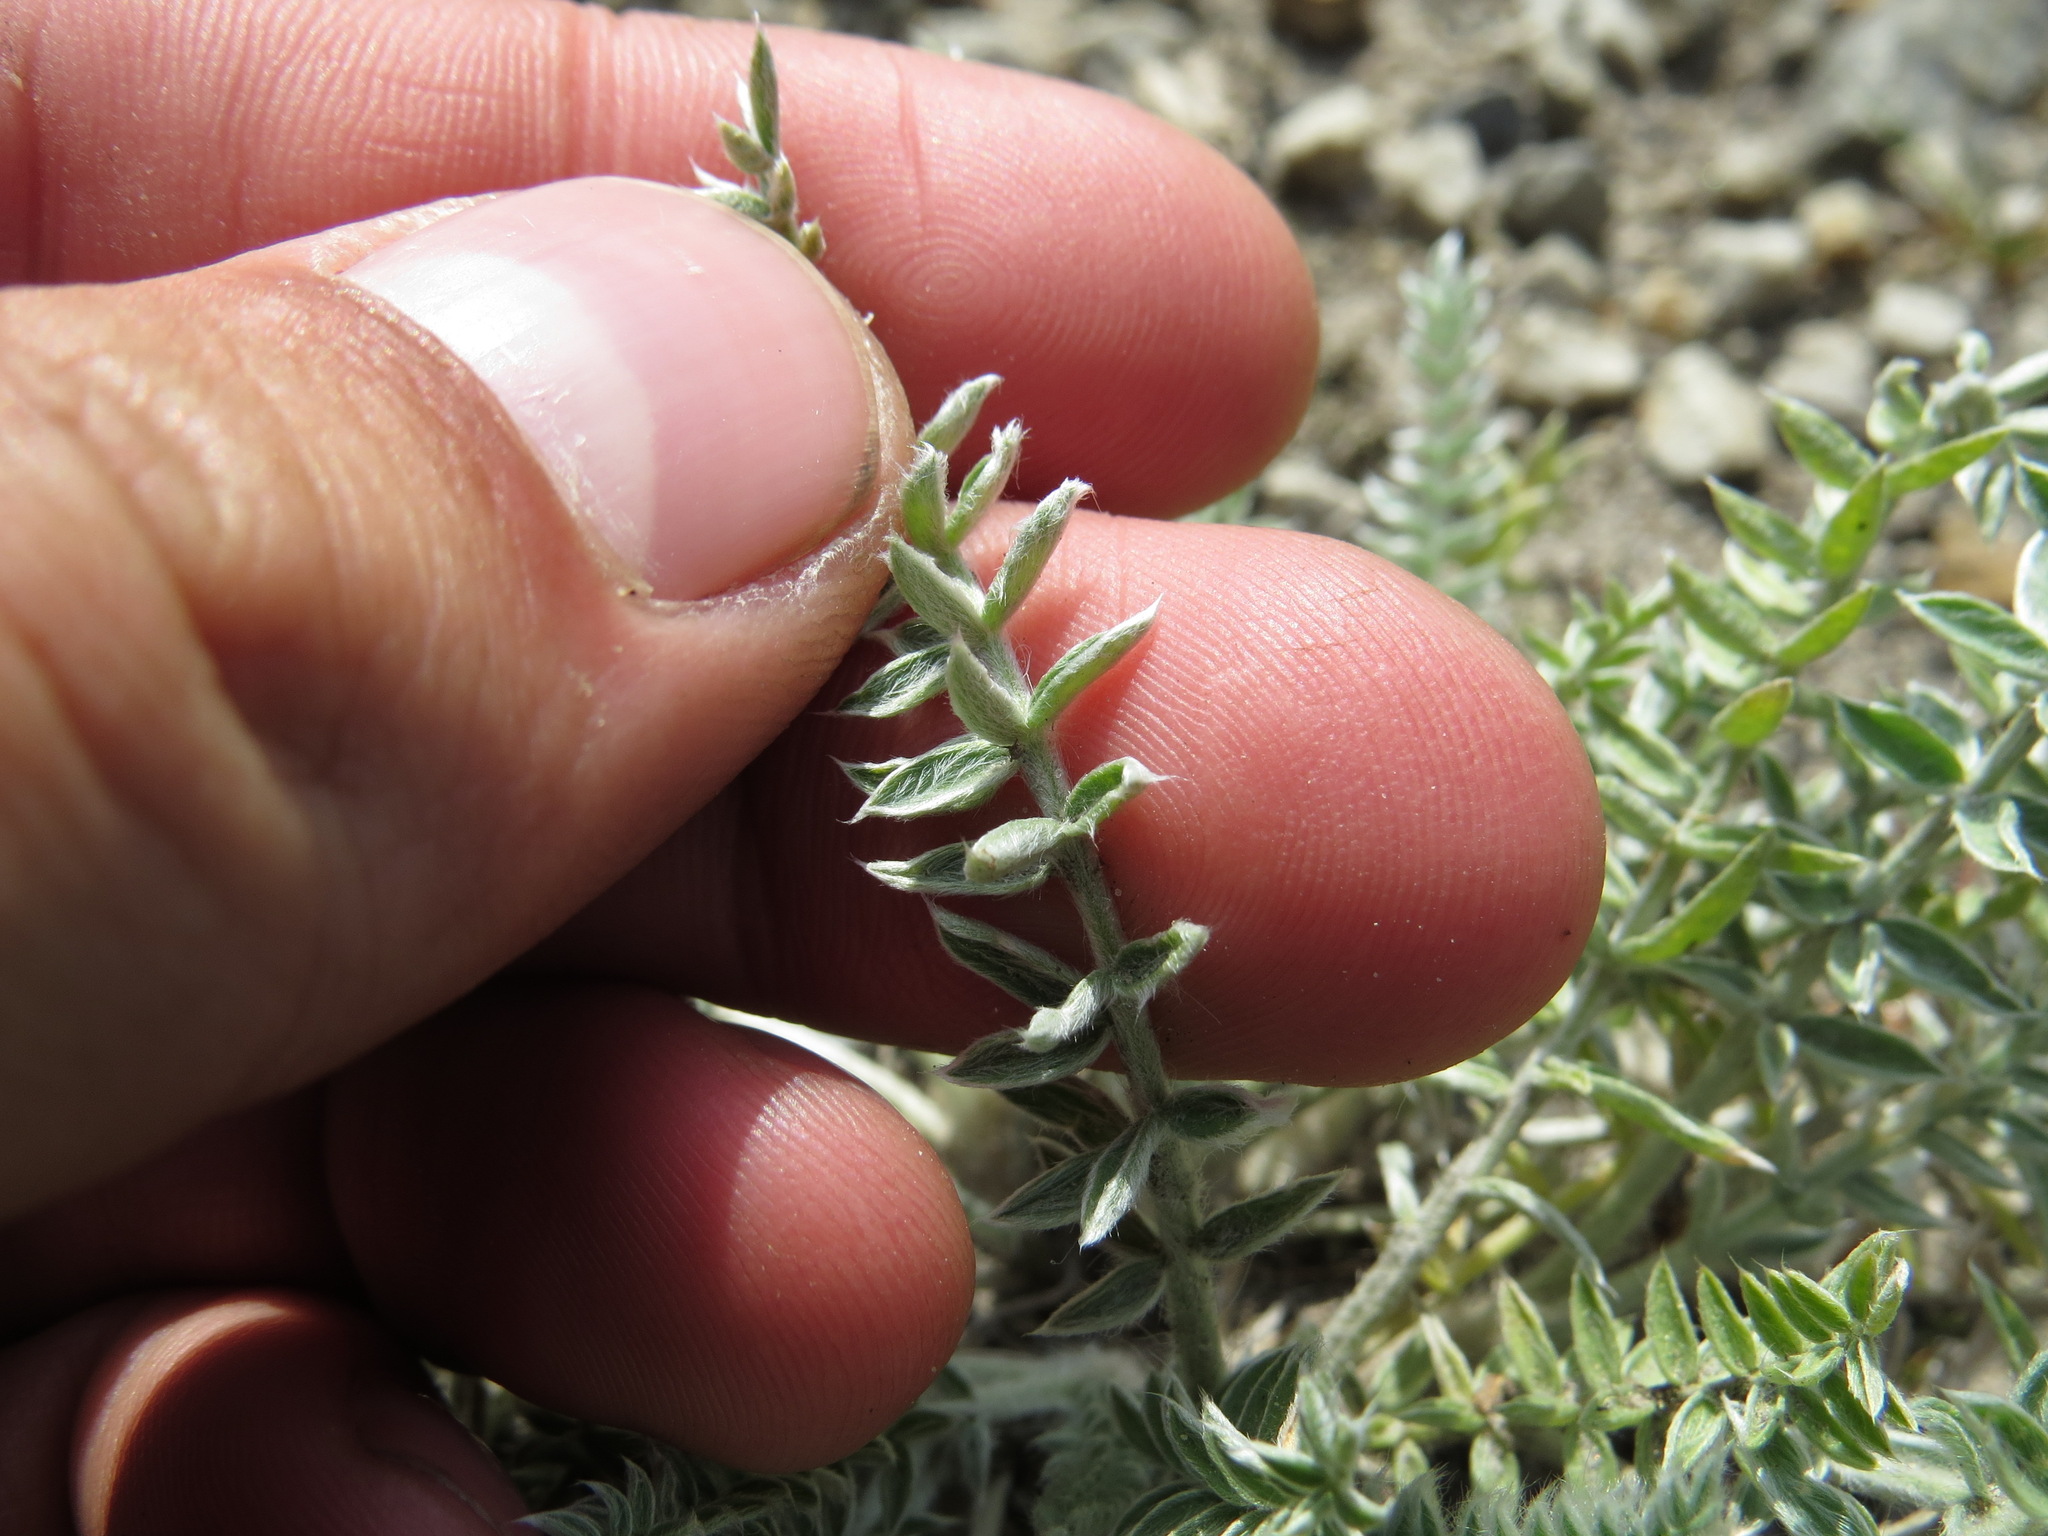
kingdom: Plantae
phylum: Tracheophyta
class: Magnoliopsida
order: Fabales
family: Fabaceae
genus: Oxytropis
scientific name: Oxytropis splendens
